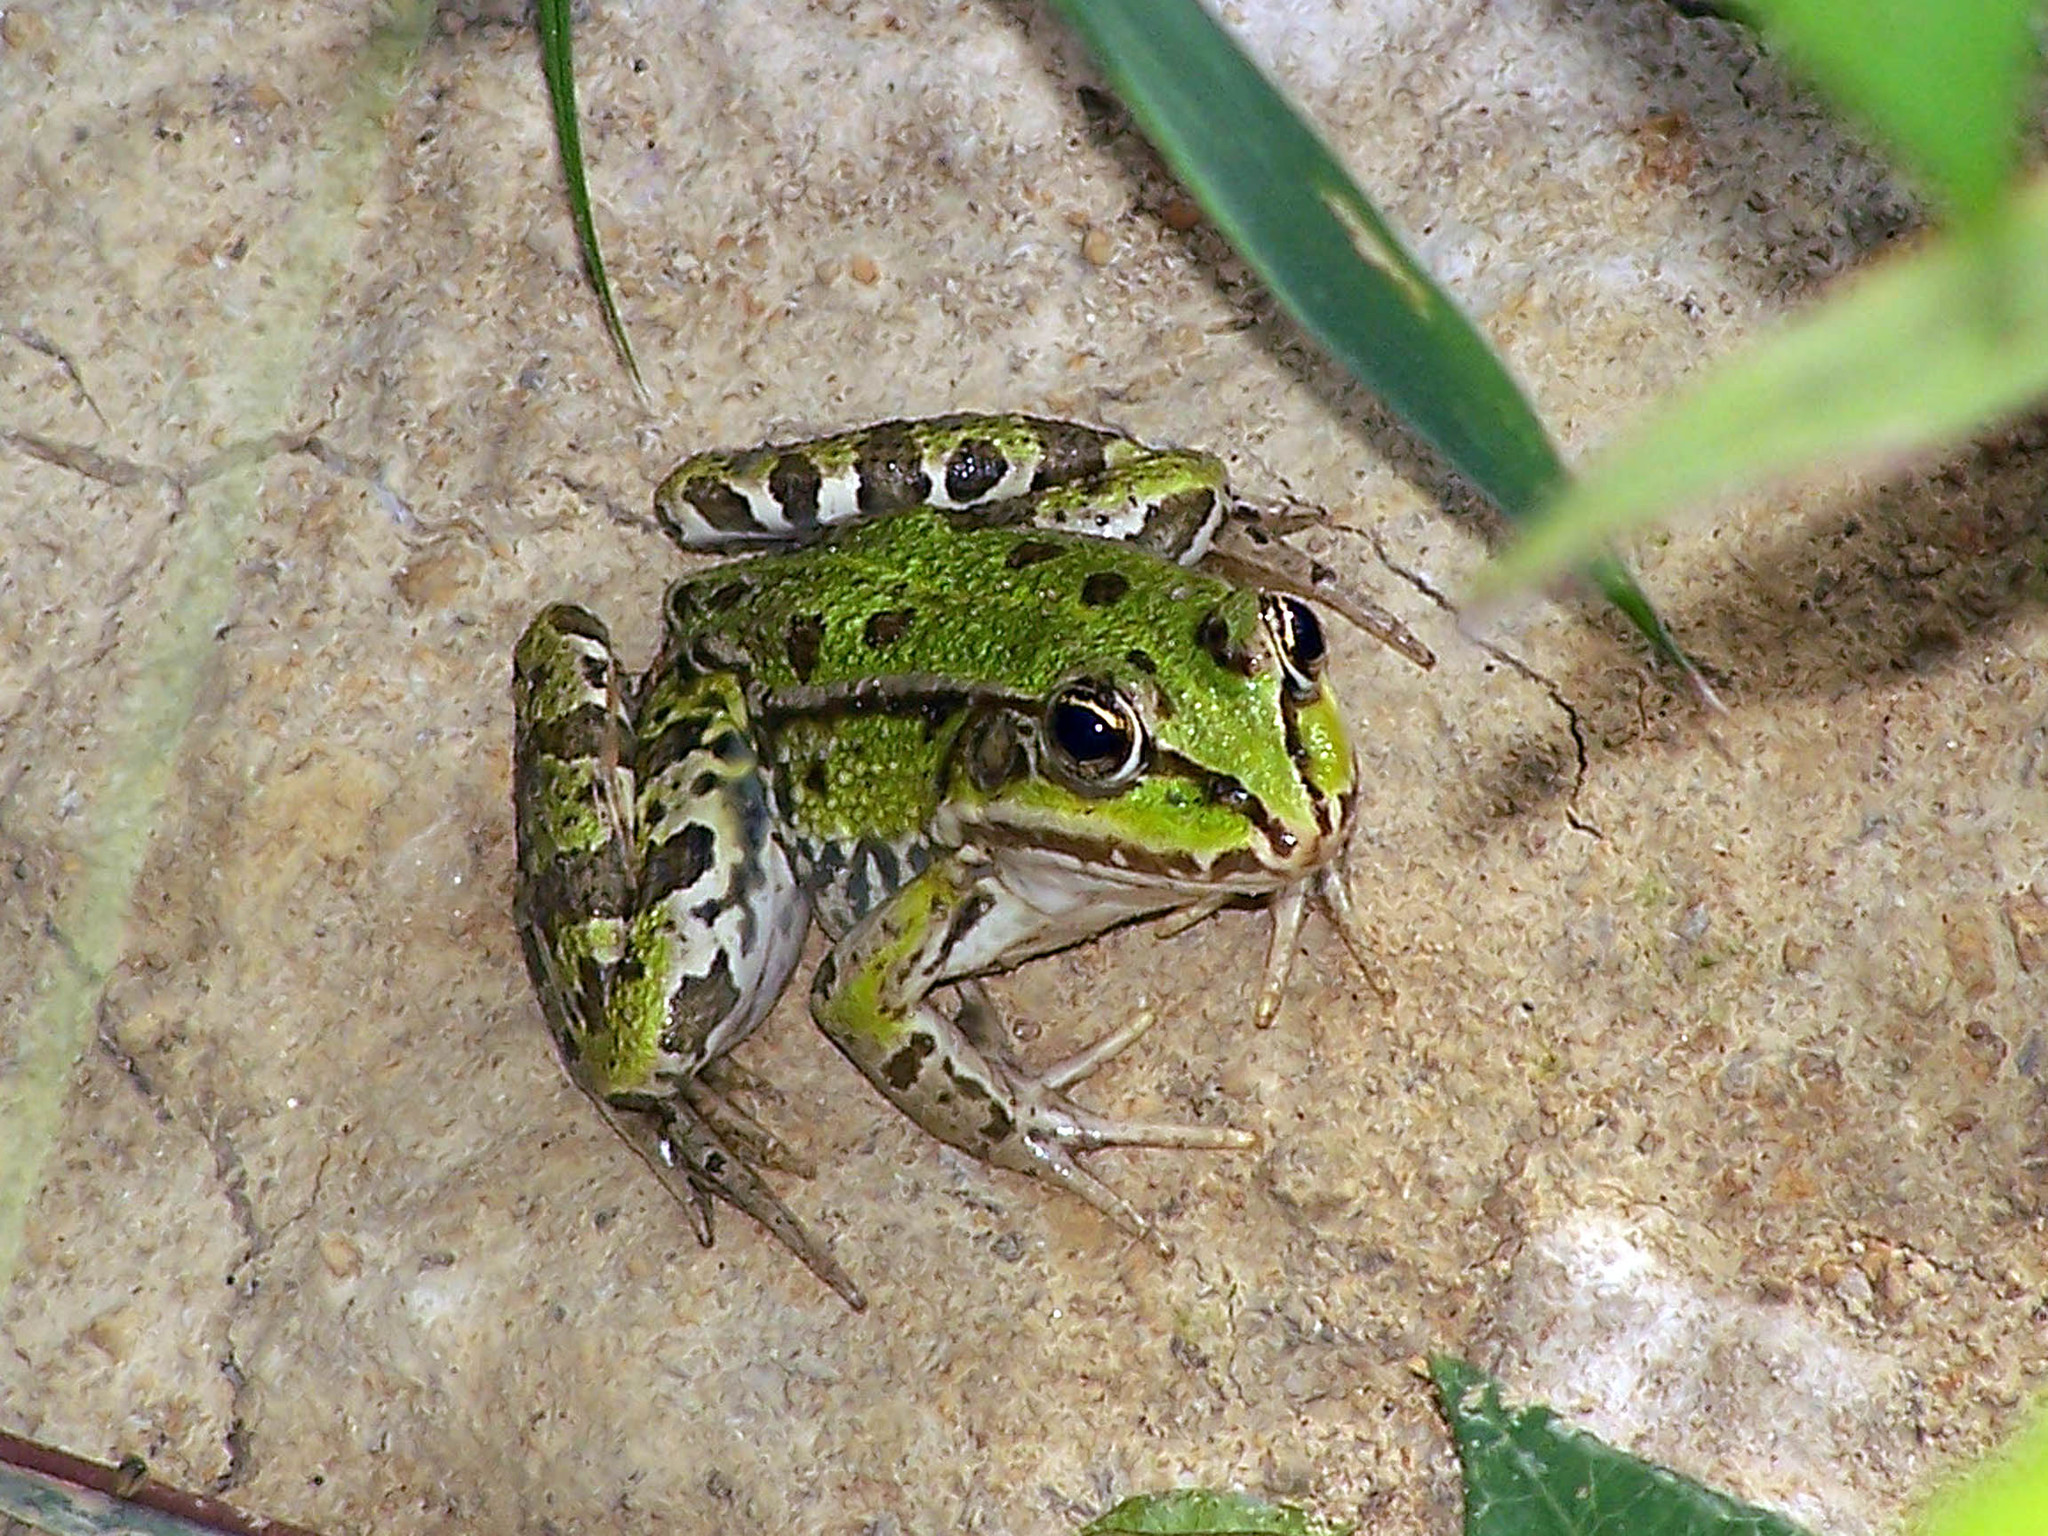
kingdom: Animalia
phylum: Chordata
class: Amphibia
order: Anura
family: Ranidae
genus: Pelophylax
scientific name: Pelophylax
